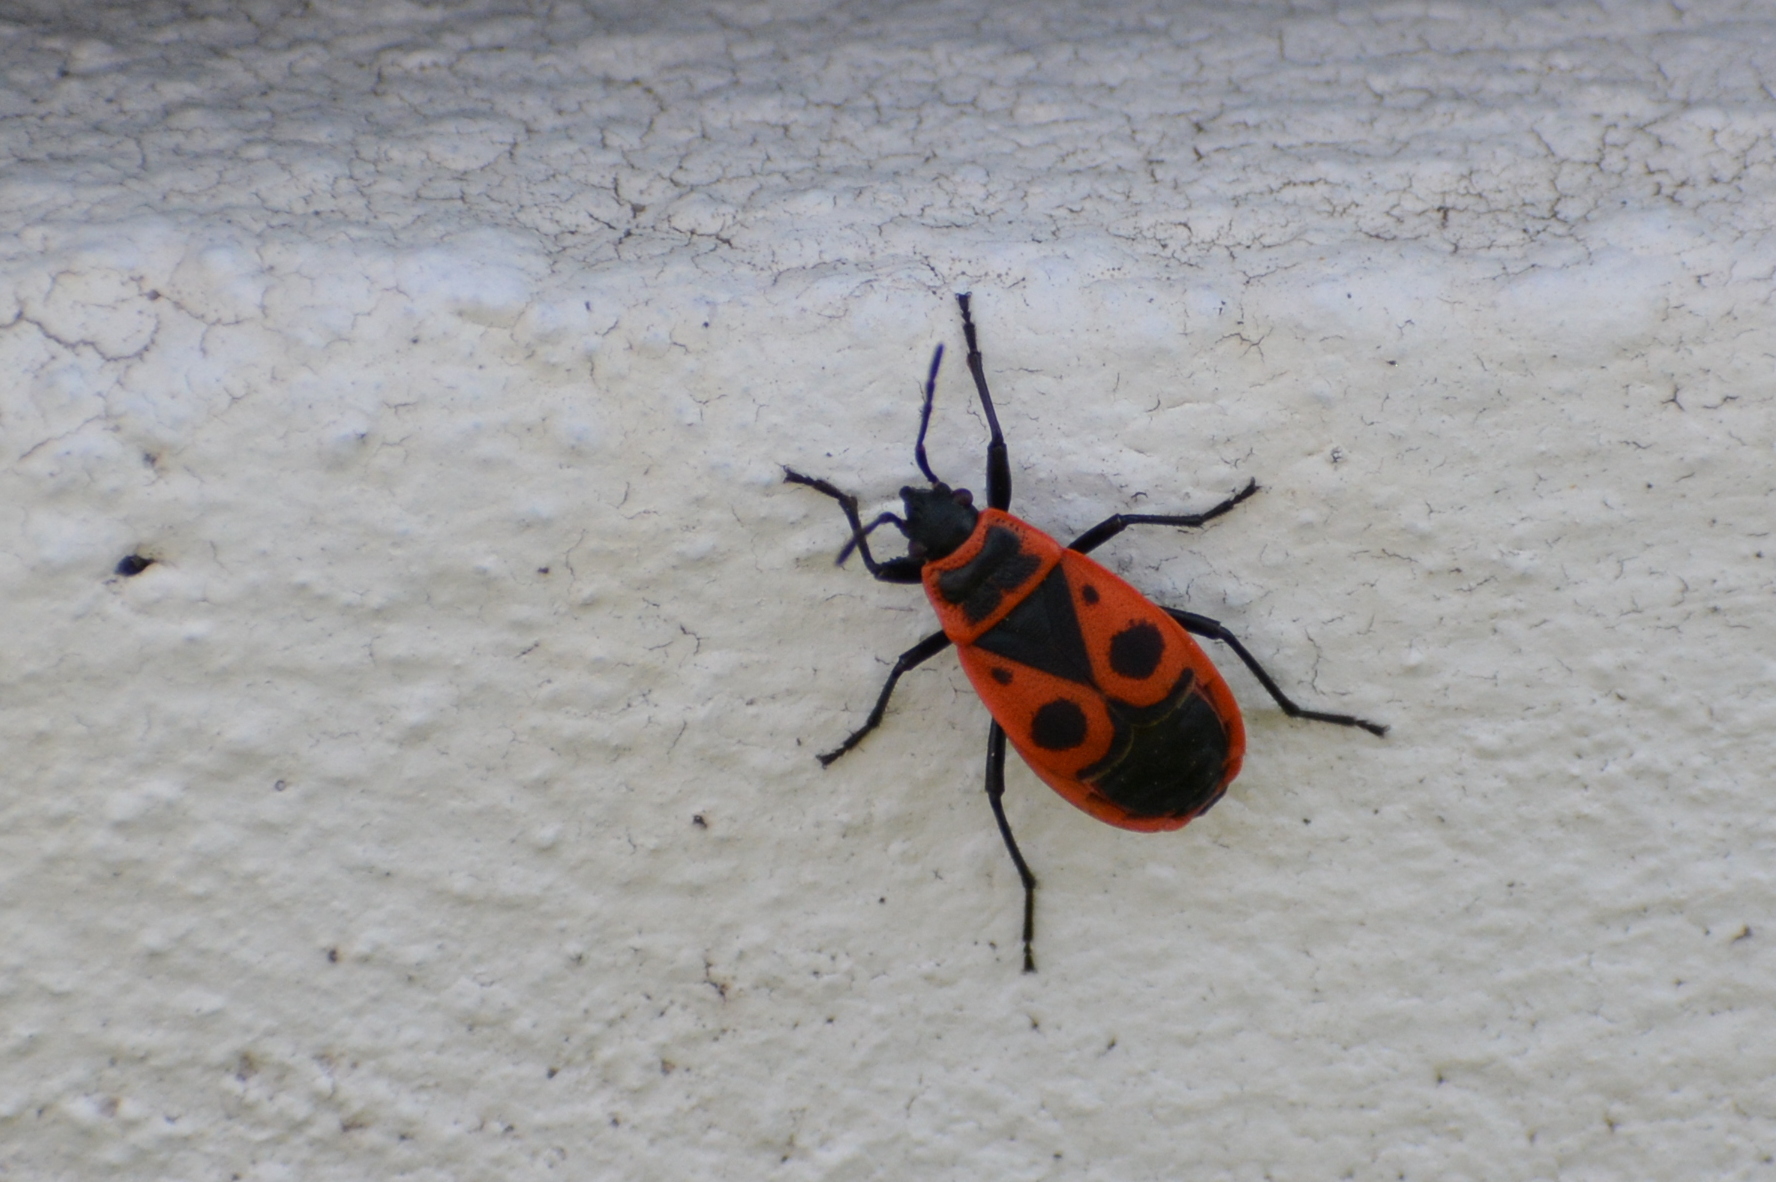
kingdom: Animalia
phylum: Arthropoda
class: Insecta
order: Hemiptera
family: Pyrrhocoridae
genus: Pyrrhocoris
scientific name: Pyrrhocoris apterus
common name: Firebug
